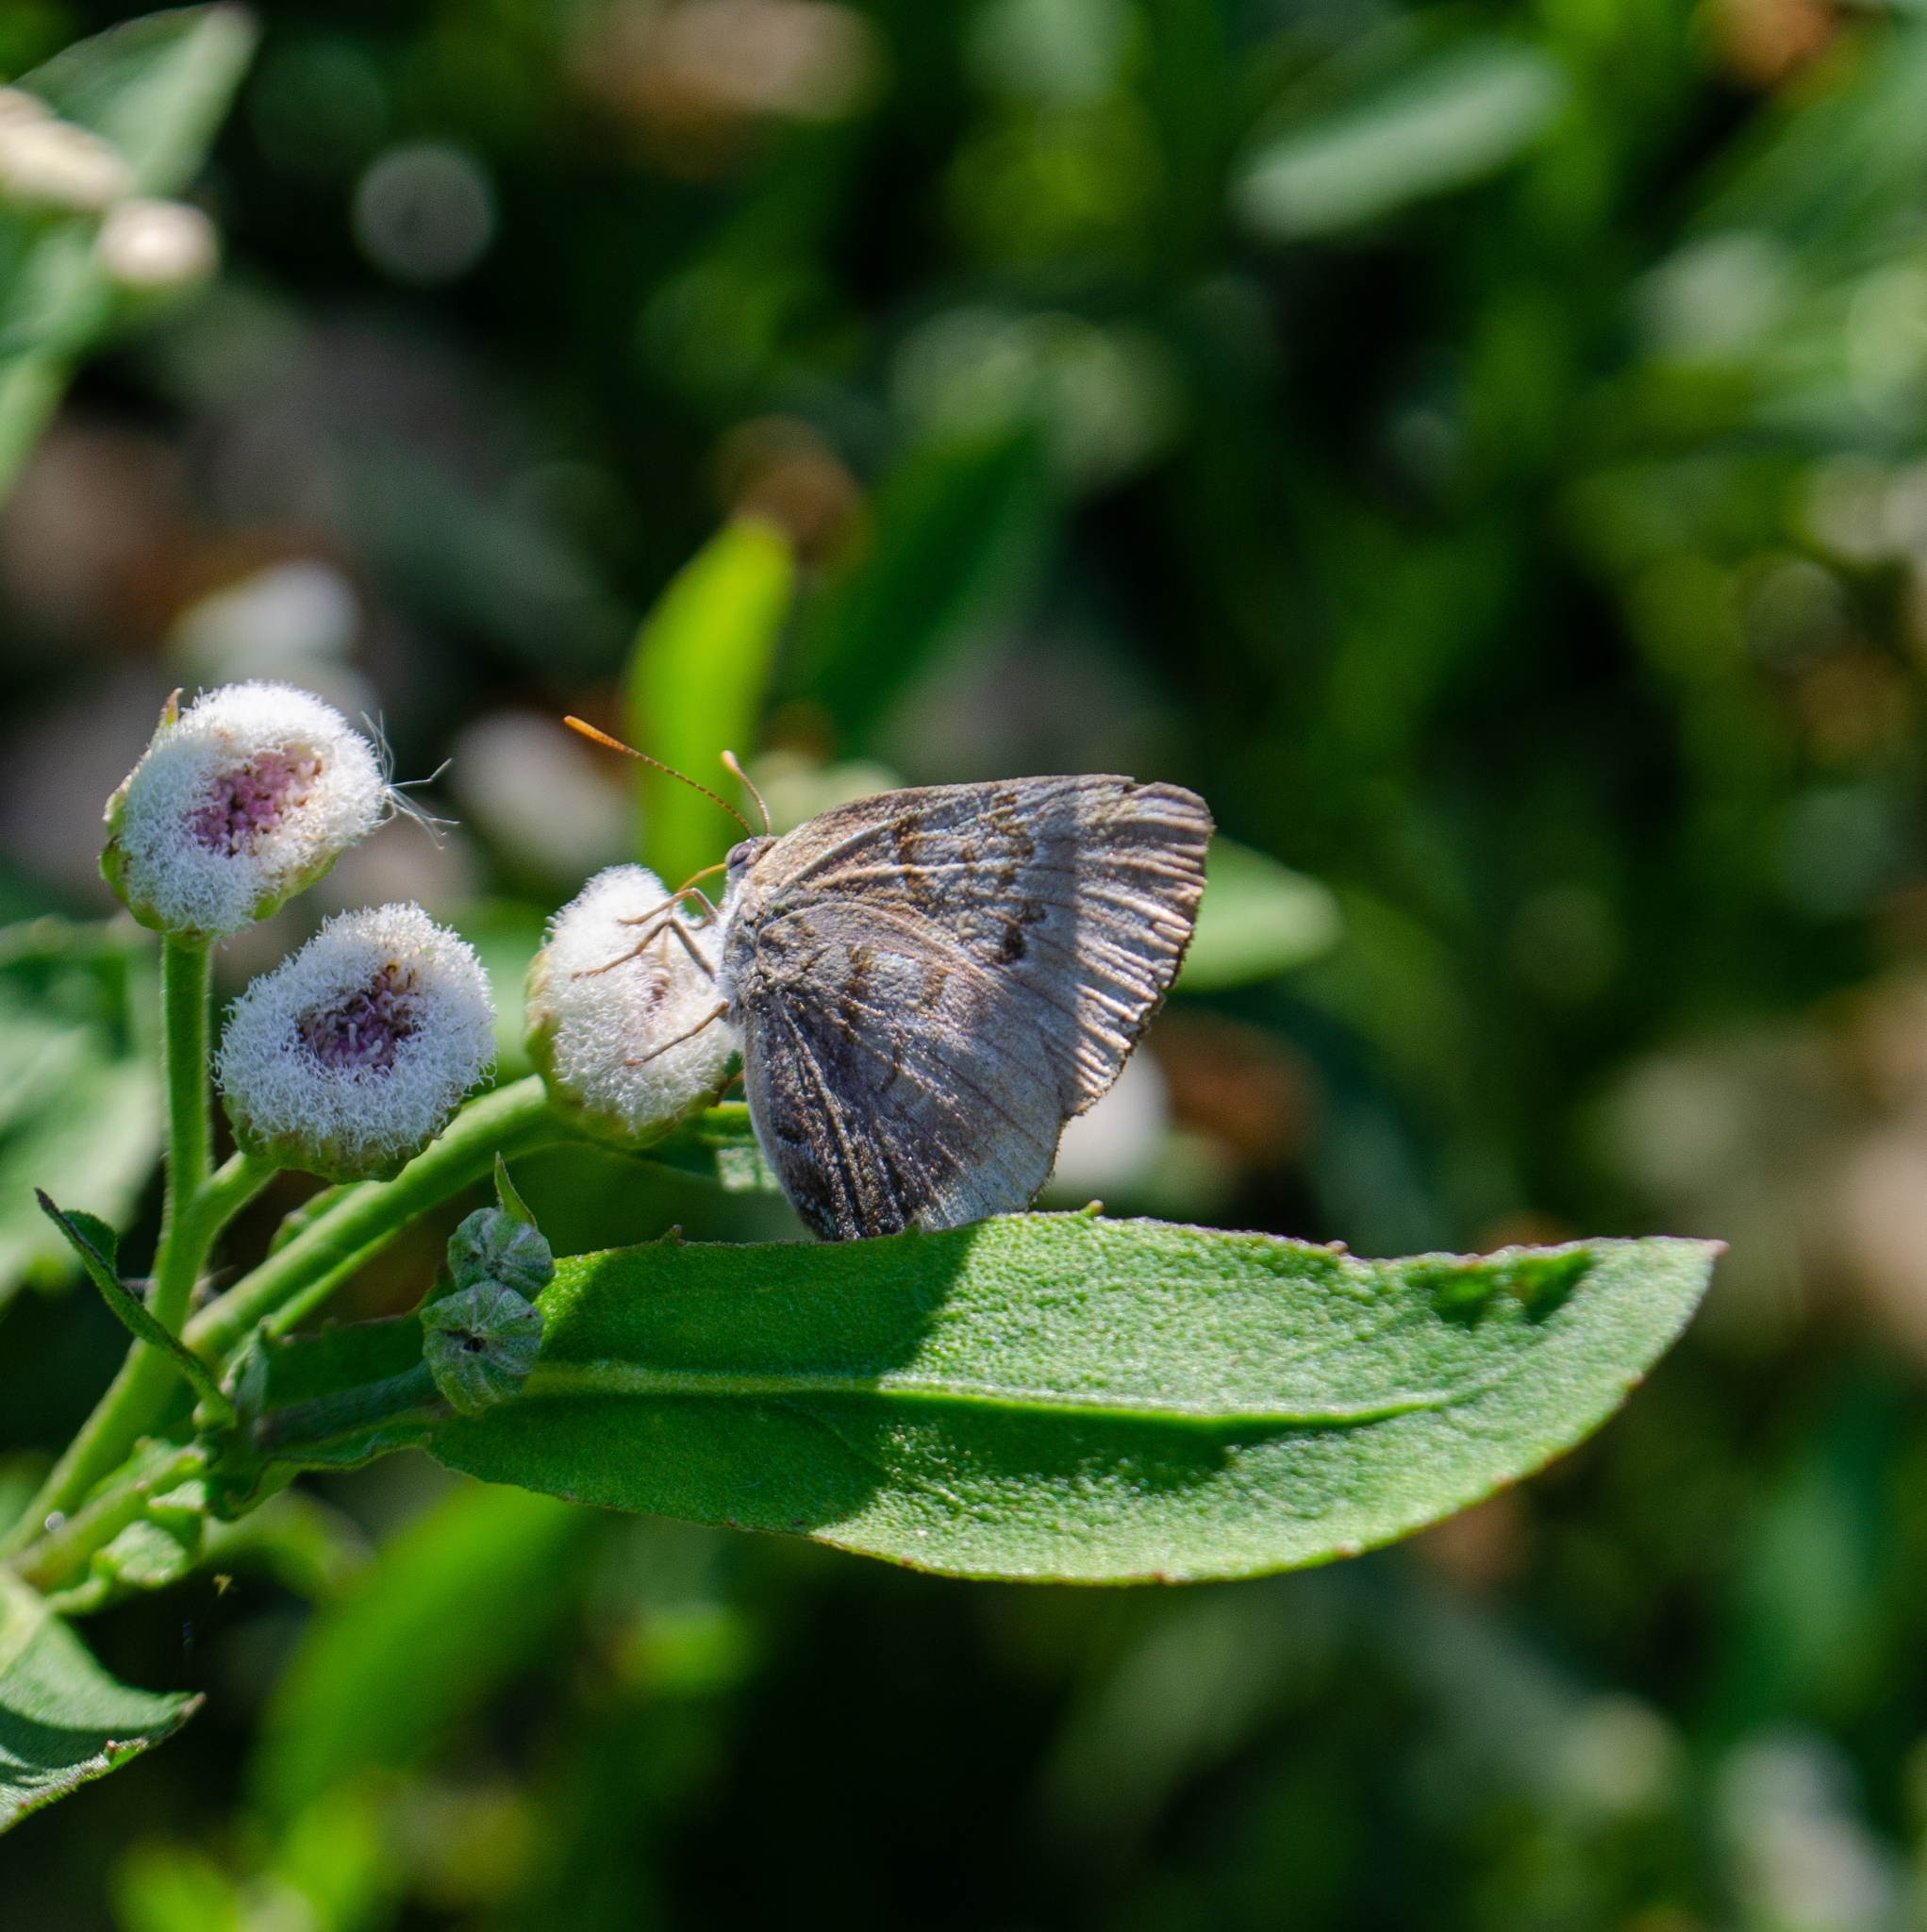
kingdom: Animalia
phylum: Arthropoda
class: Insecta
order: Lepidoptera
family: Lycaenidae
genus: Rekoa
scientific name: Rekoa palegon
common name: Gold-bordered hairstreak
